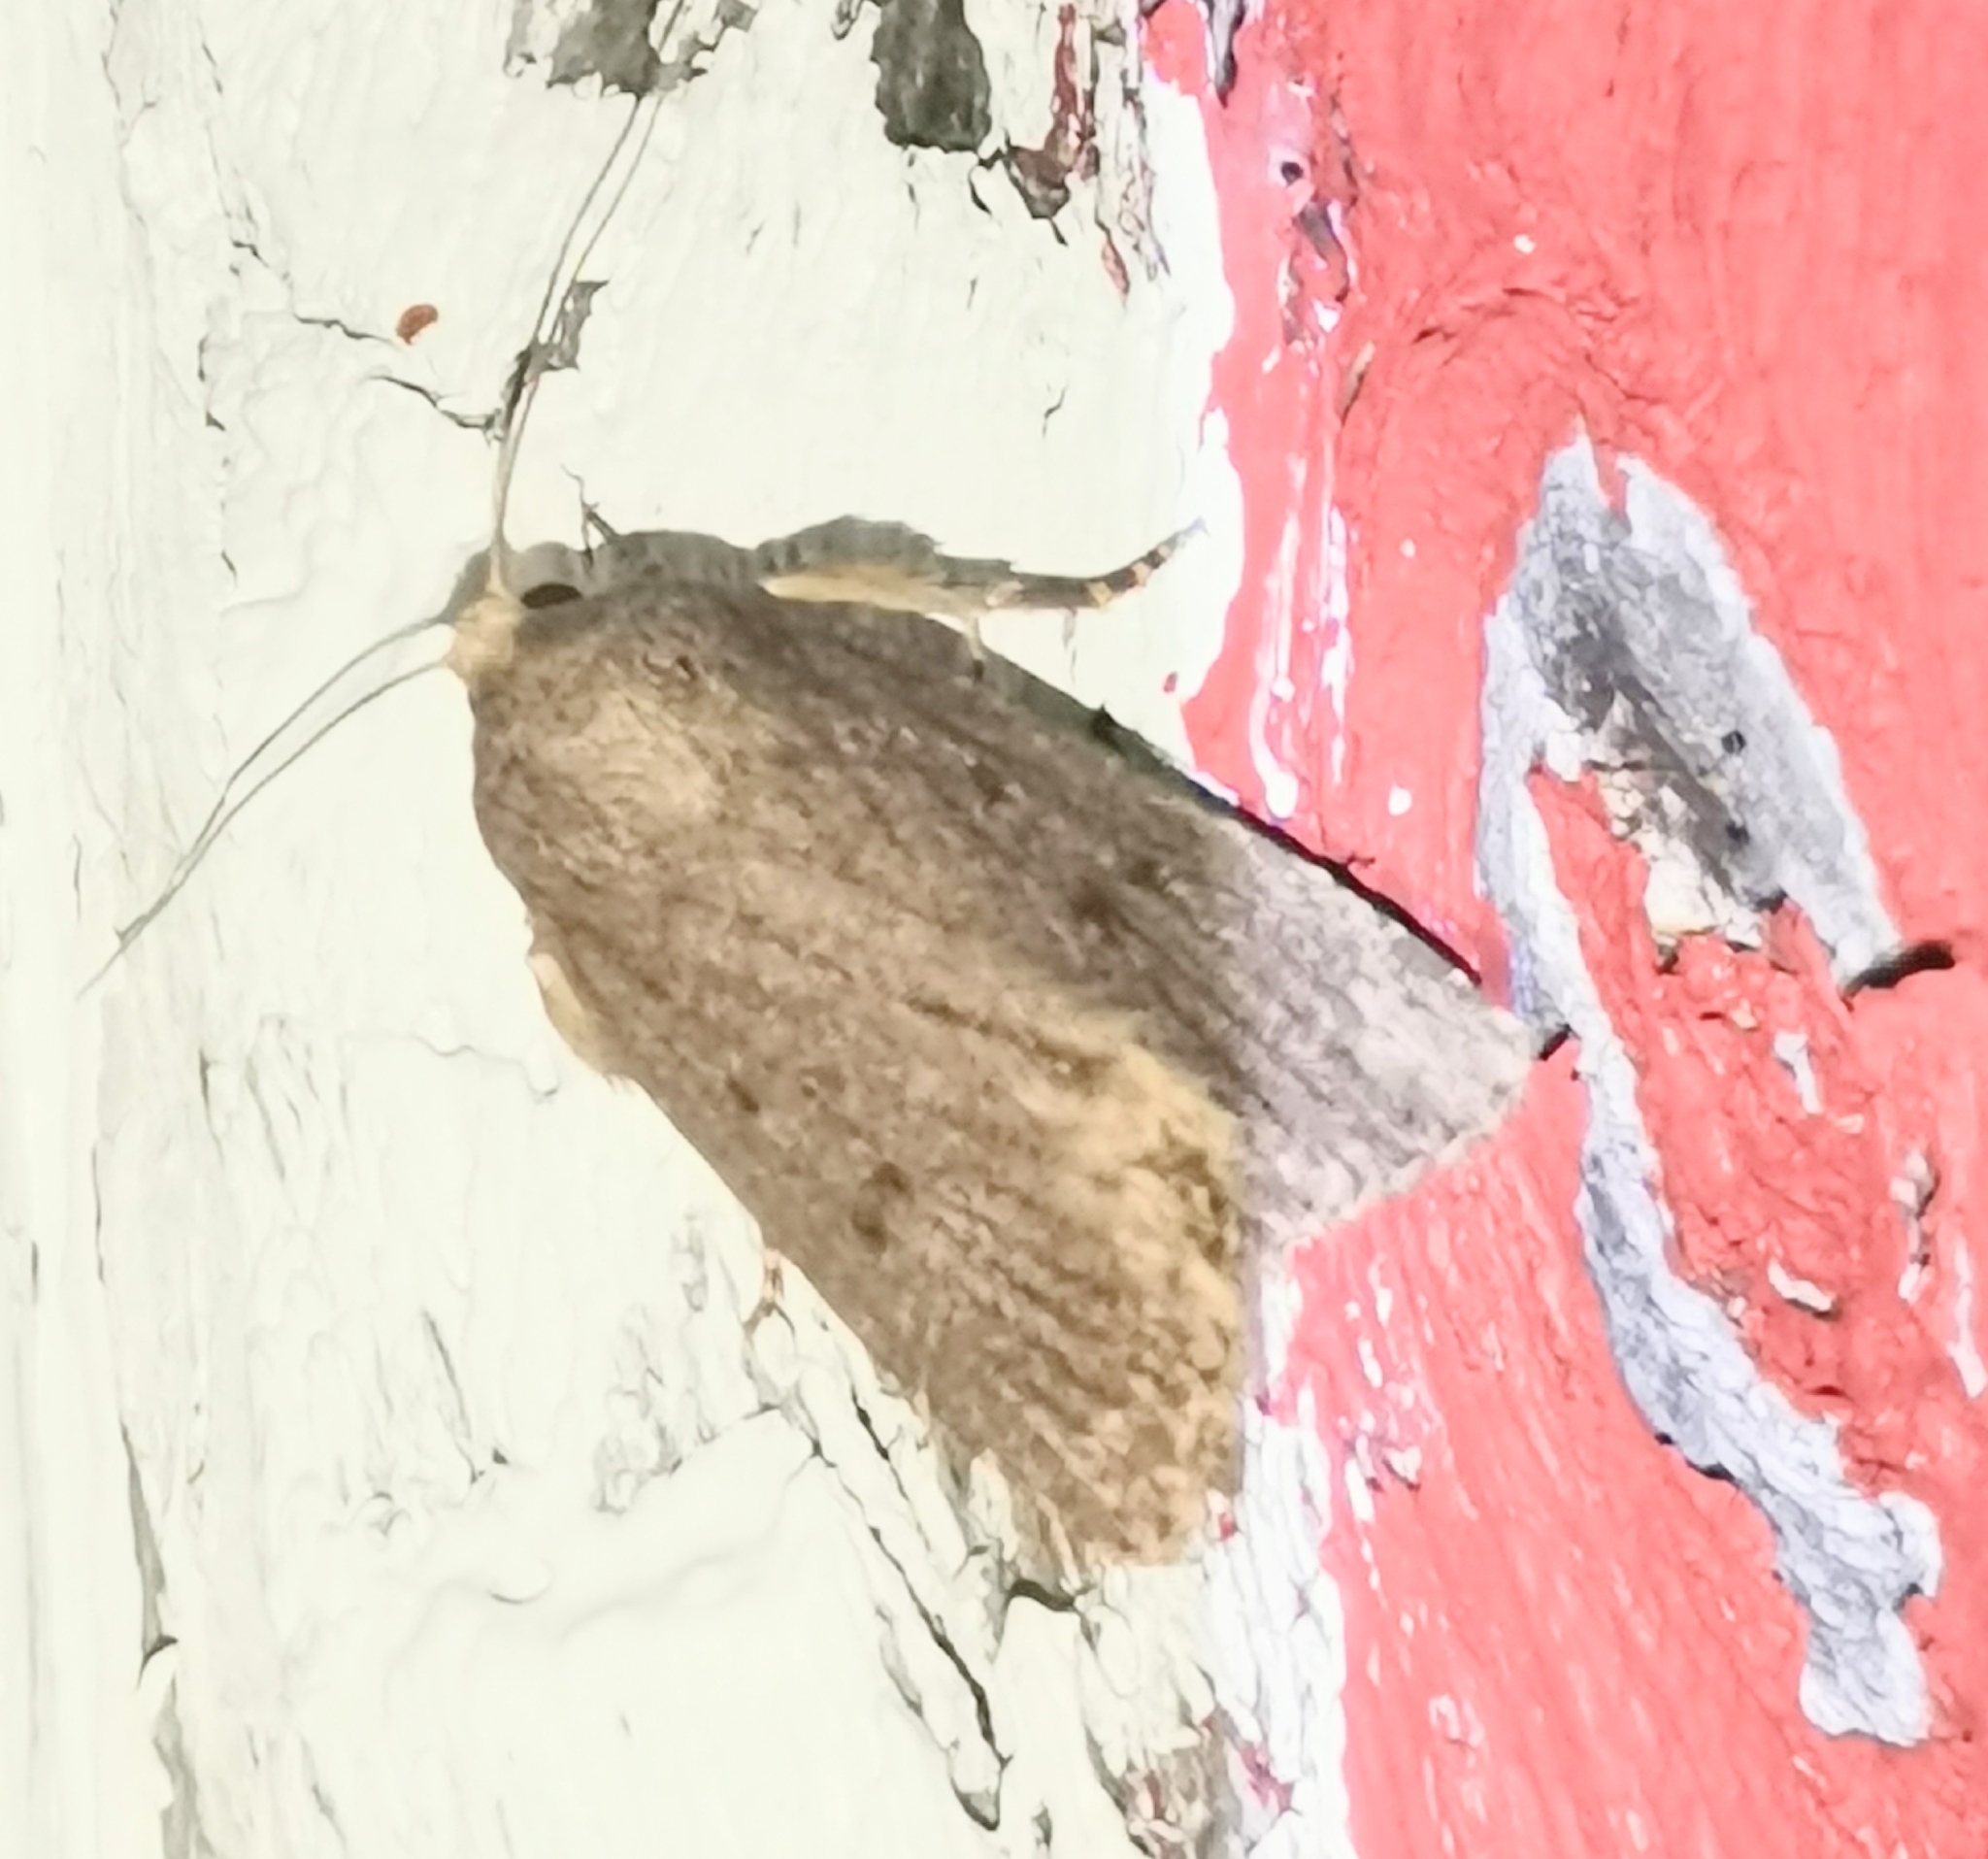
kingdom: Animalia
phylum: Arthropoda
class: Insecta
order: Lepidoptera
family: Noctuidae
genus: Amphipyra
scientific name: Amphipyra tragopoginis
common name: Mouse moth
